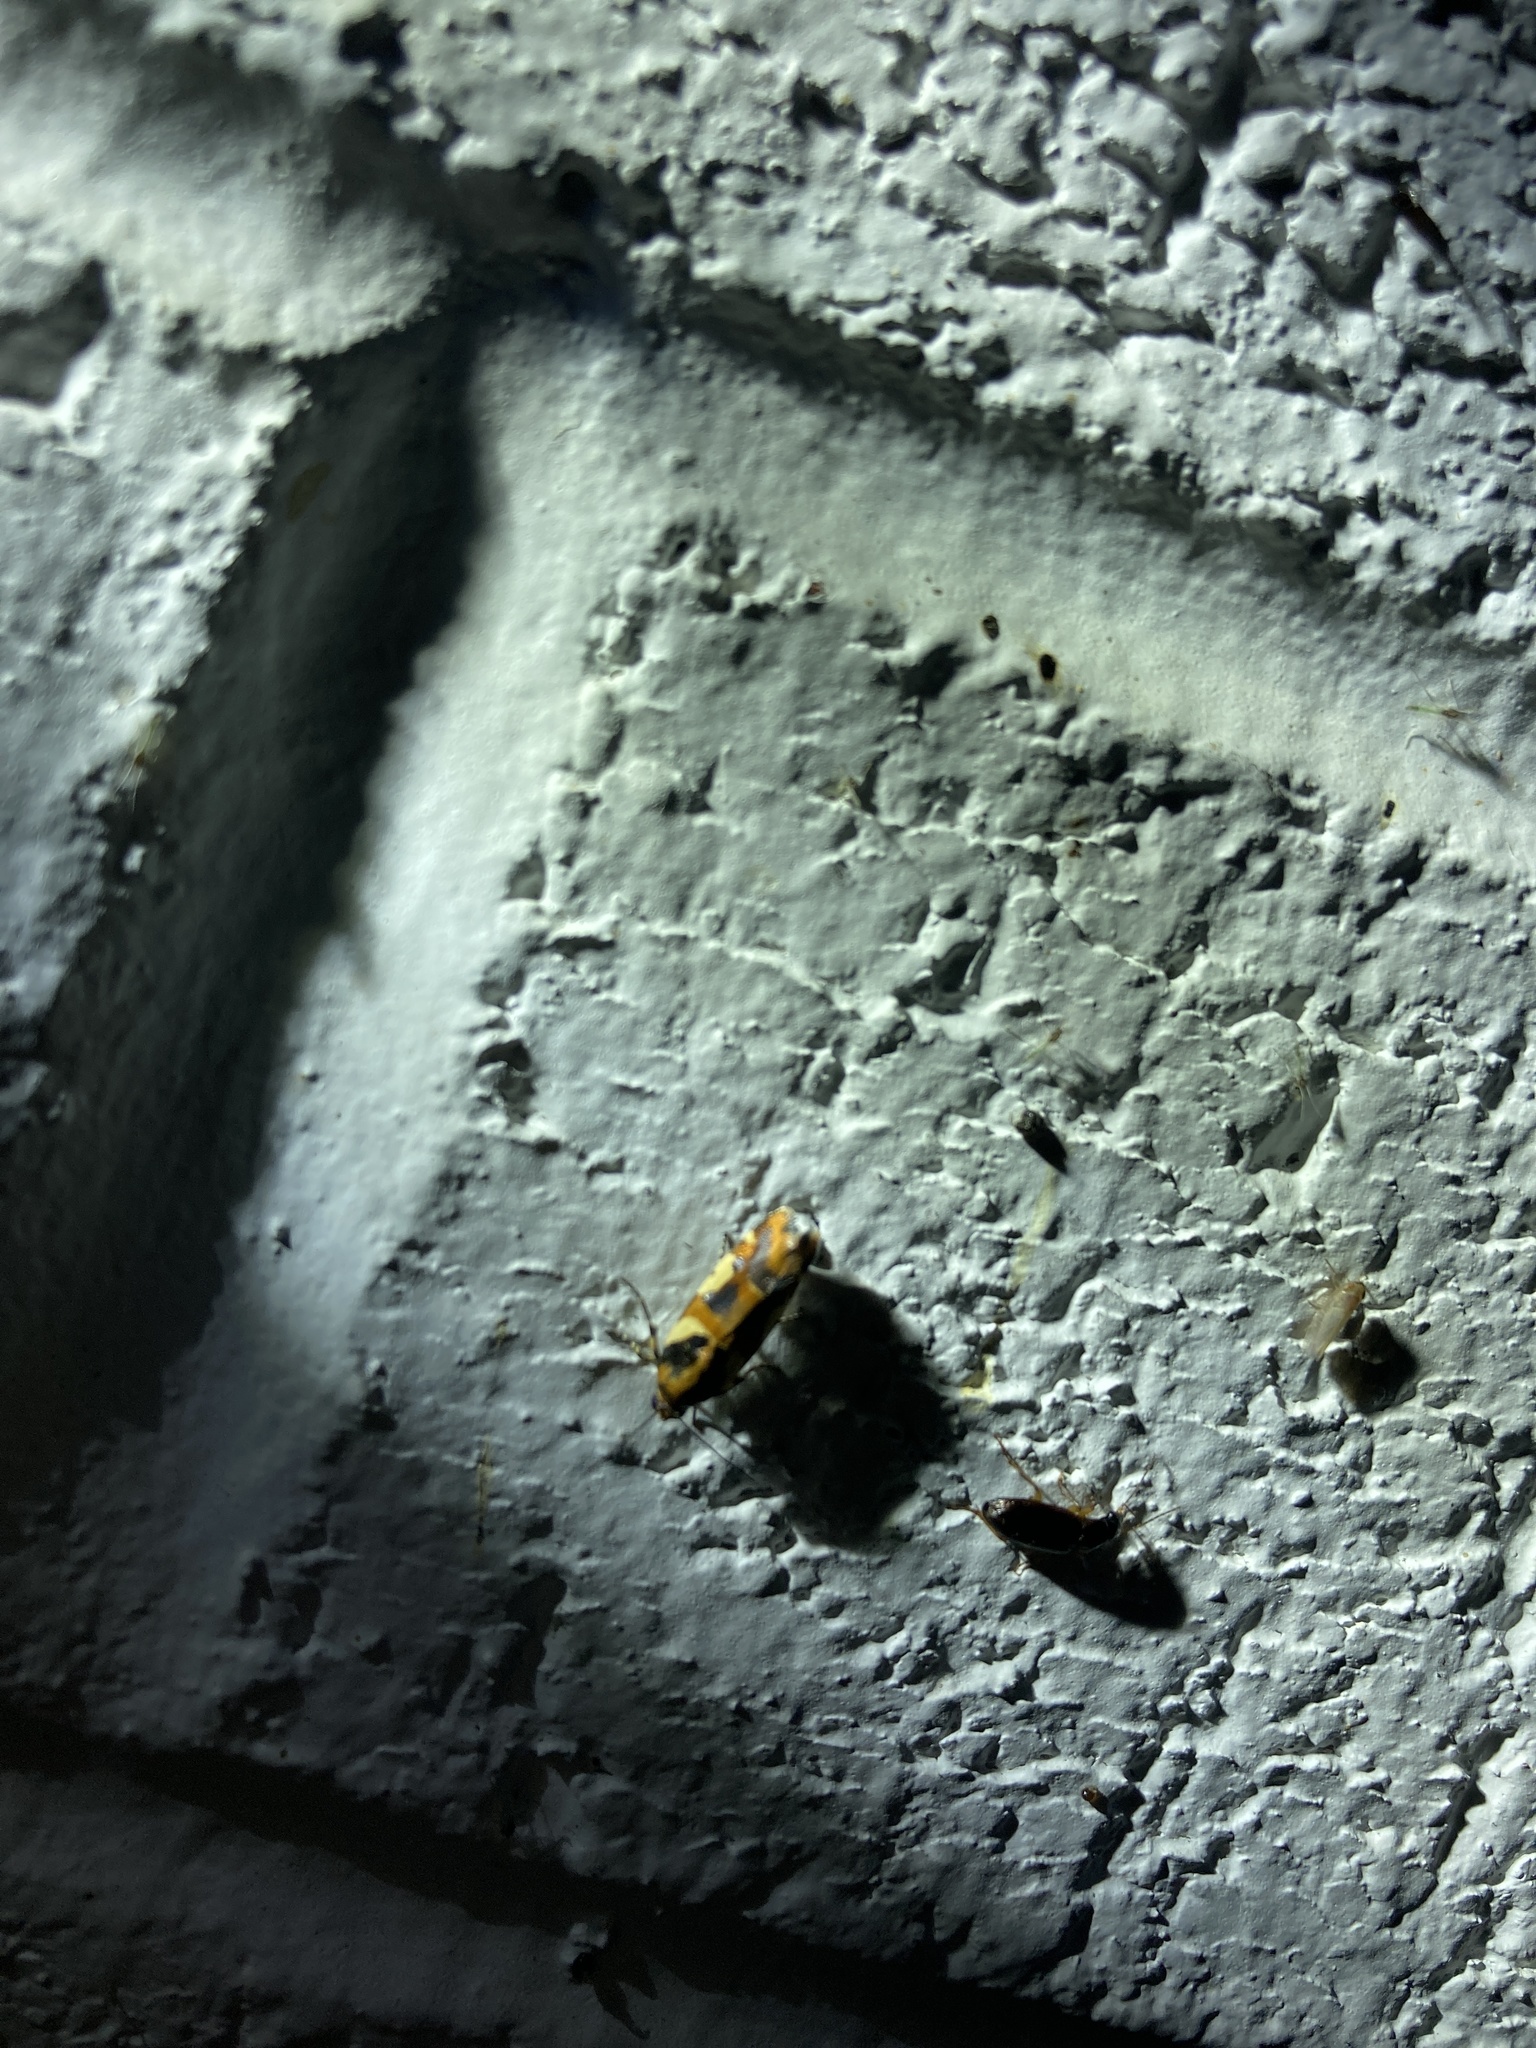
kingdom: Animalia
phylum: Arthropoda
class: Insecta
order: Lepidoptera
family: Noctuidae
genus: Acontia
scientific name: Acontia dama
